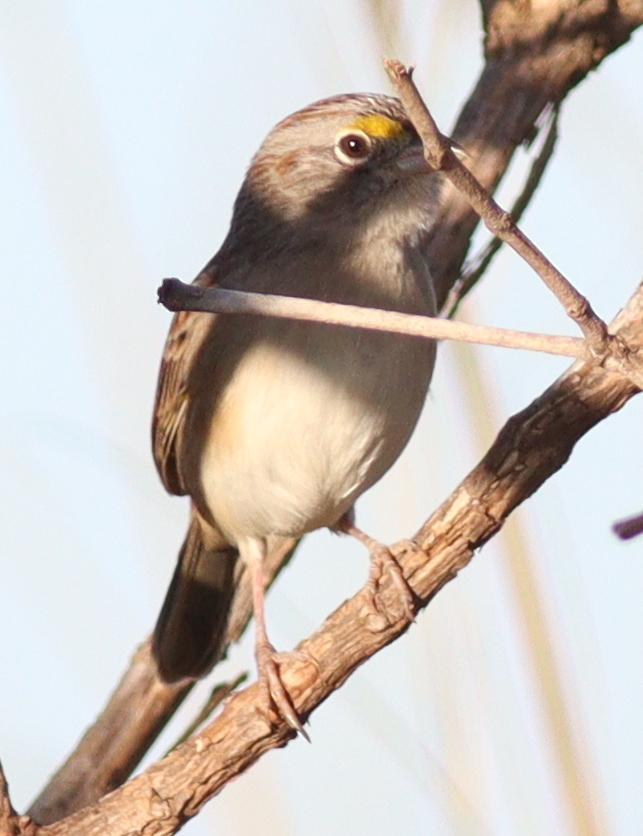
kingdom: Animalia
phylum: Chordata
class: Aves
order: Passeriformes
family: Passerellidae
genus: Ammodramus
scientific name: Ammodramus humeralis
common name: Grassland sparrow
